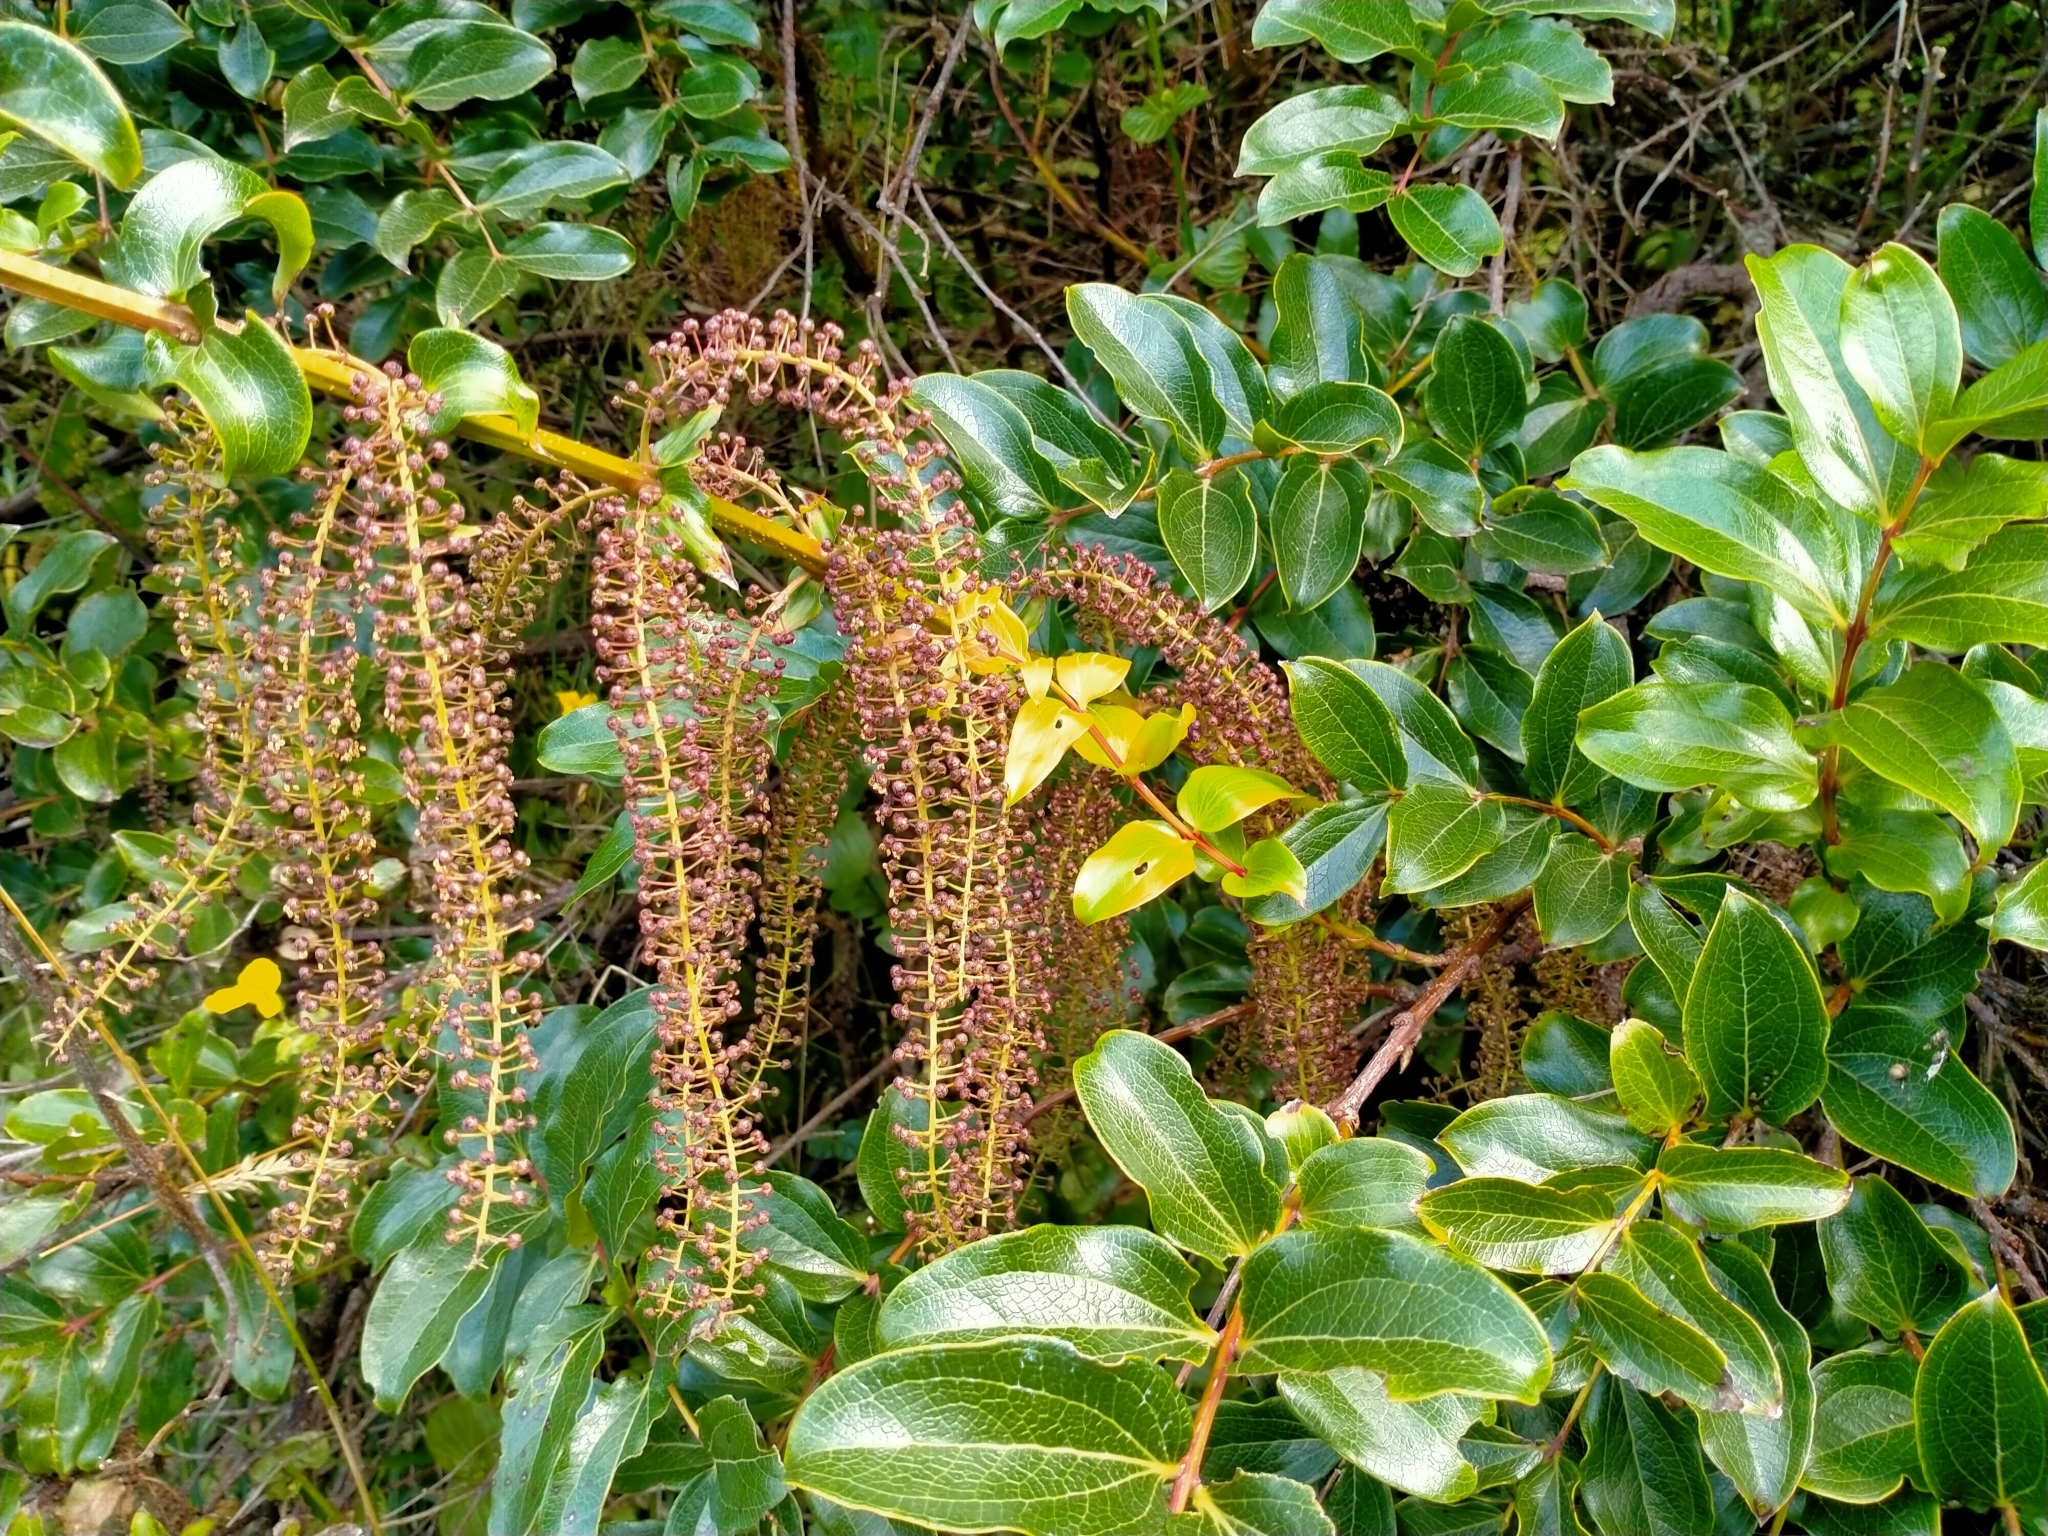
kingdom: Plantae
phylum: Tracheophyta
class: Magnoliopsida
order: Cucurbitales
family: Coriariaceae
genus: Coriaria
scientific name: Coriaria arborea
